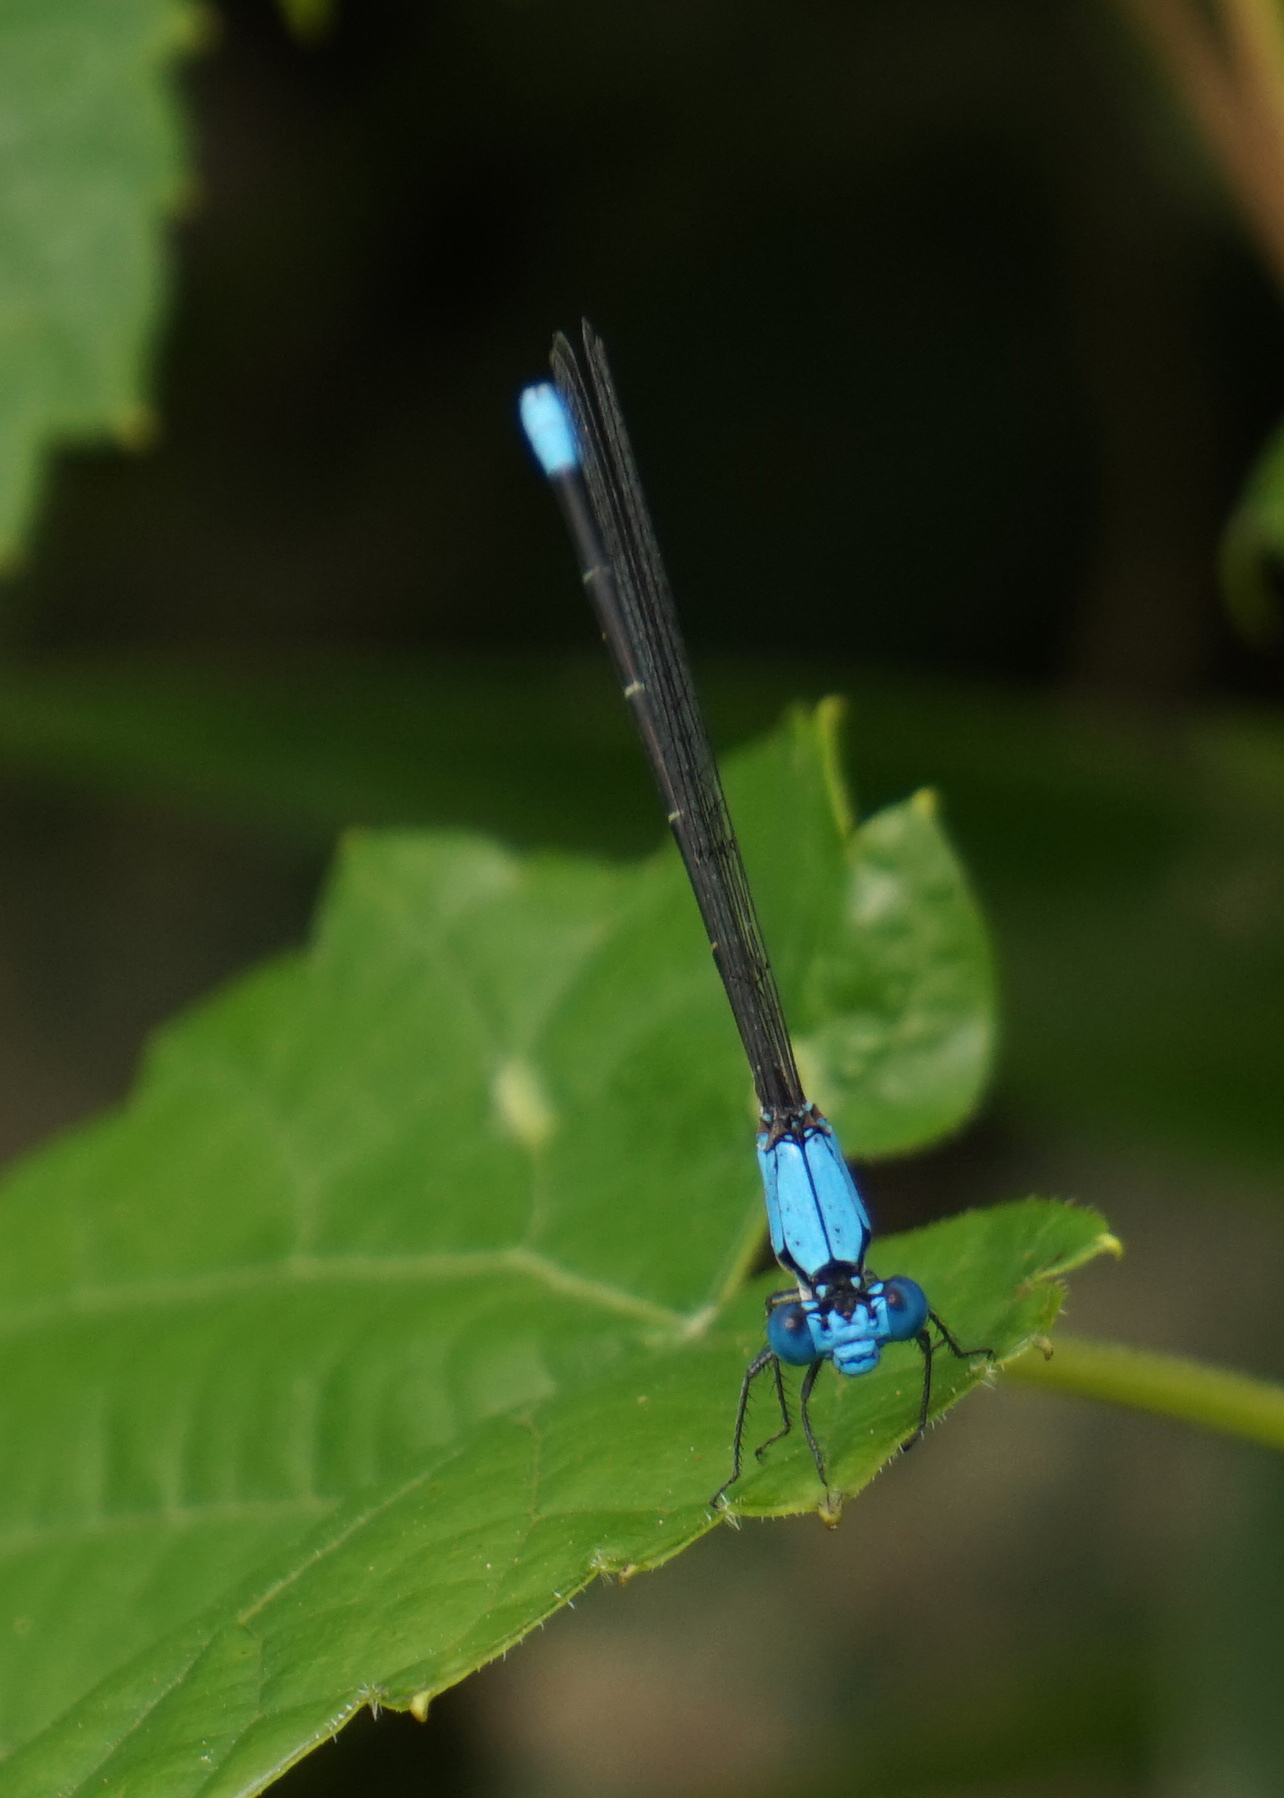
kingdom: Animalia
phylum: Arthropoda
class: Insecta
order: Odonata
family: Coenagrionidae
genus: Argia
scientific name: Argia apicalis
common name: Blue-fronted dancer
